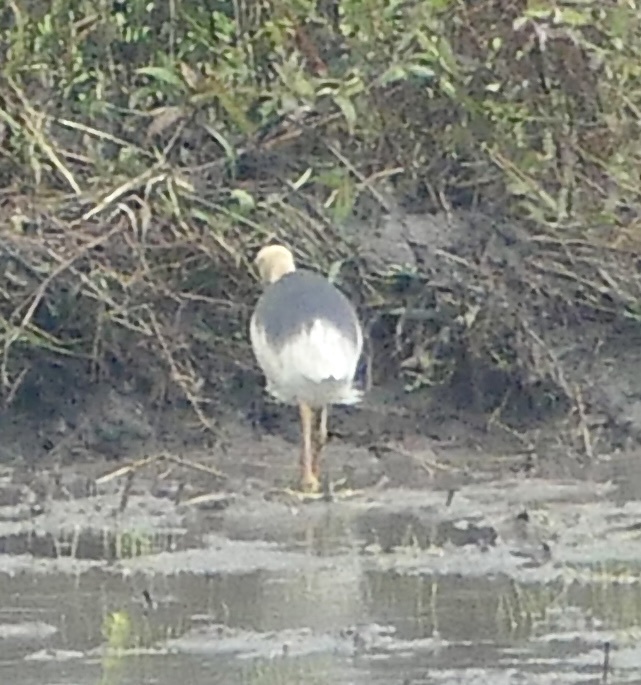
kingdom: Animalia
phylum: Chordata
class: Aves
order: Pelecaniformes
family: Ardeidae
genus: Ardeola
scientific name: Ardeola speciosa
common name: Javan pond heron
